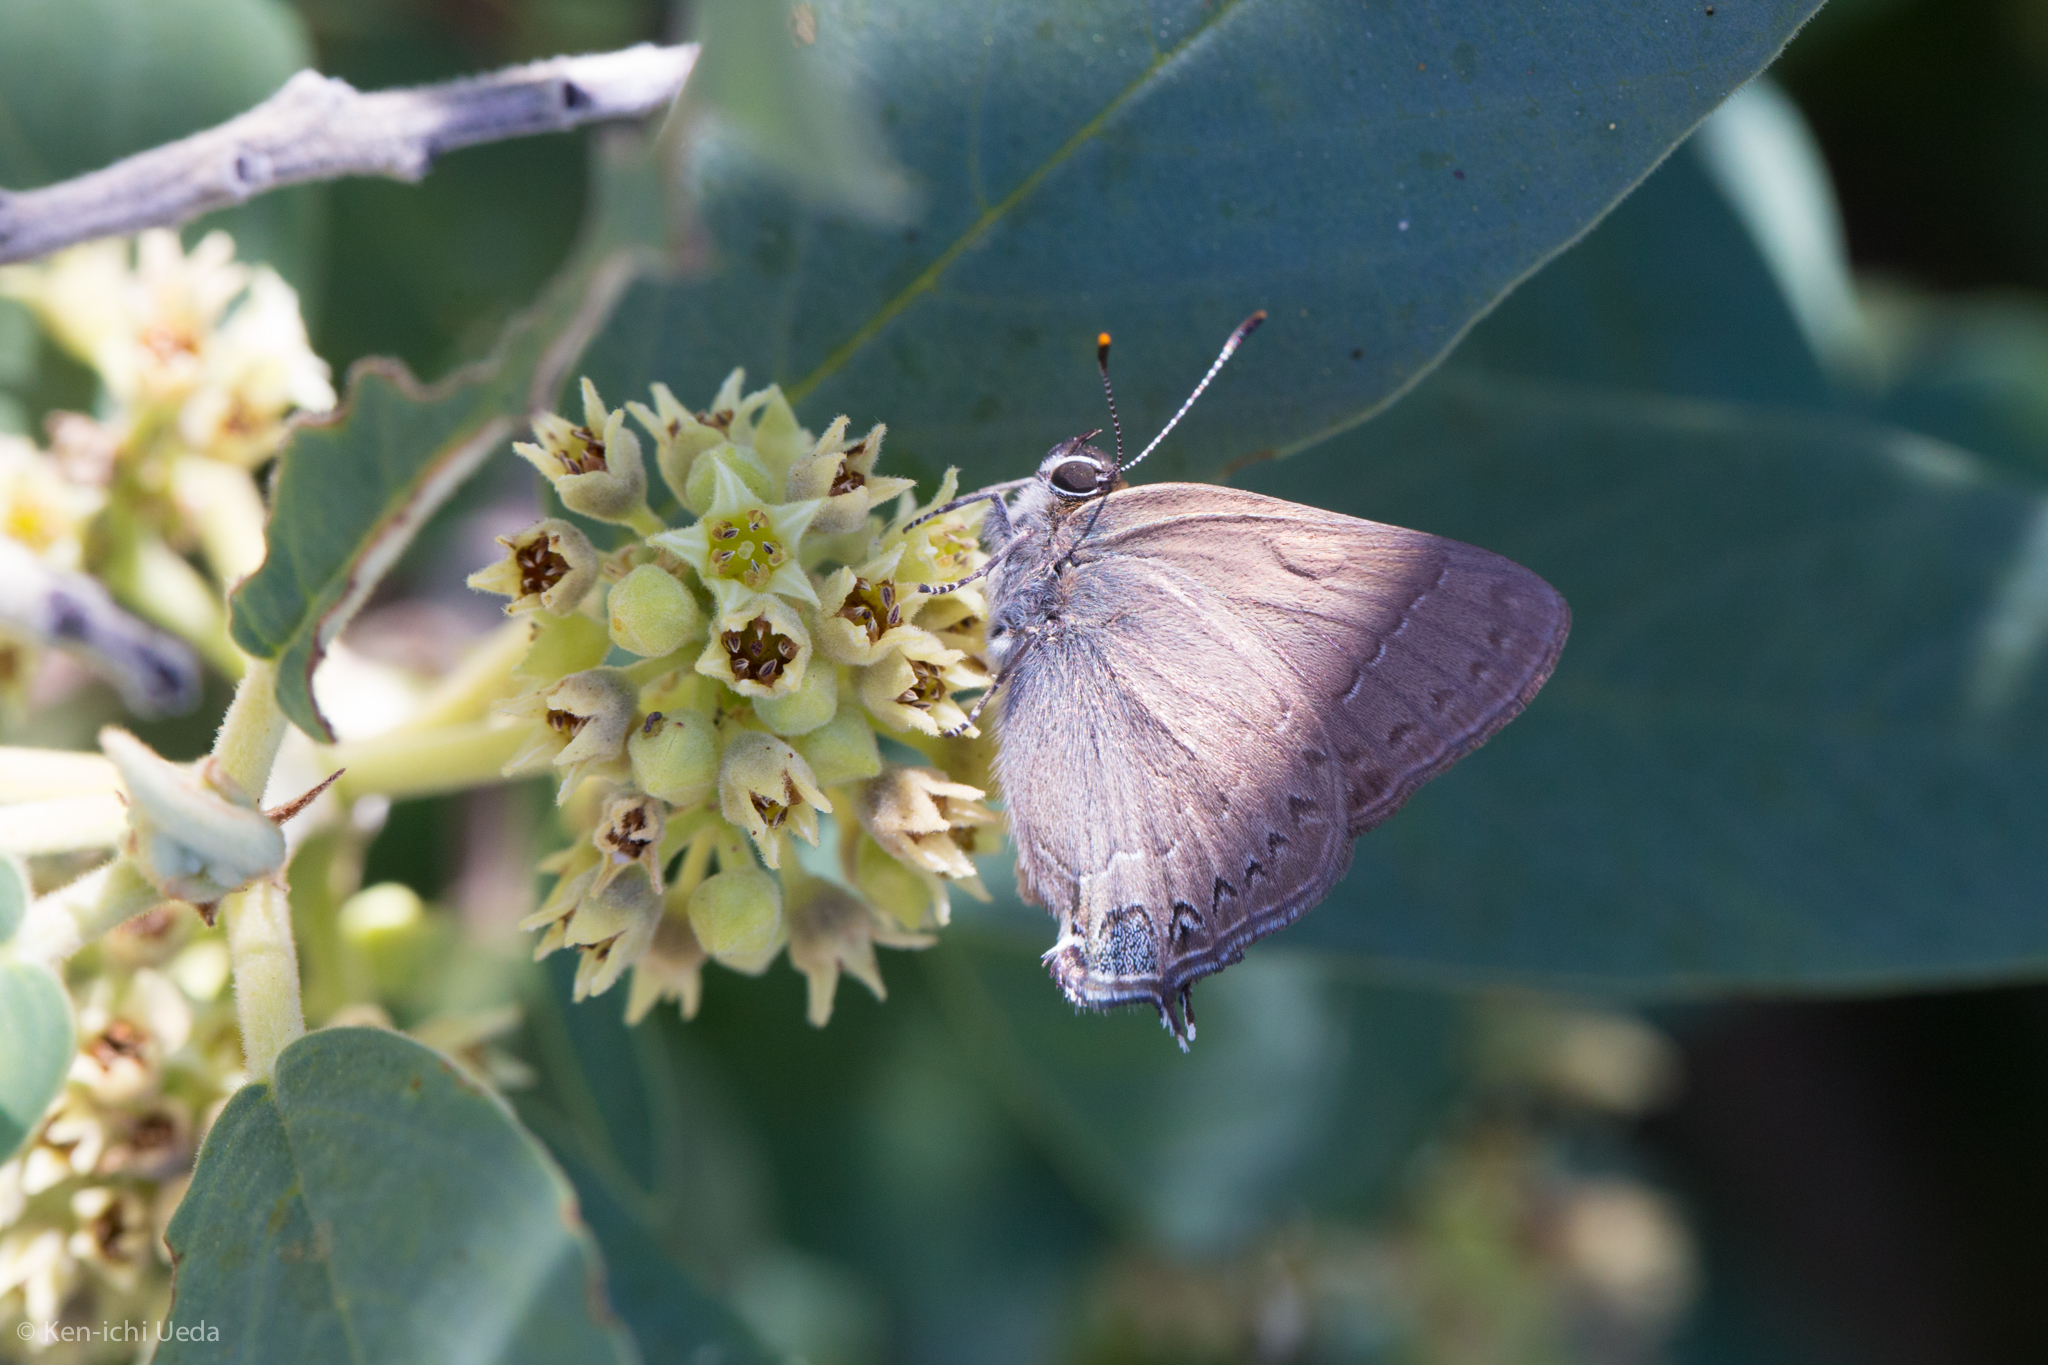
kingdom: Animalia
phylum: Arthropoda
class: Insecta
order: Lepidoptera
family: Lycaenidae
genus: Strymon
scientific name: Strymon saepium
